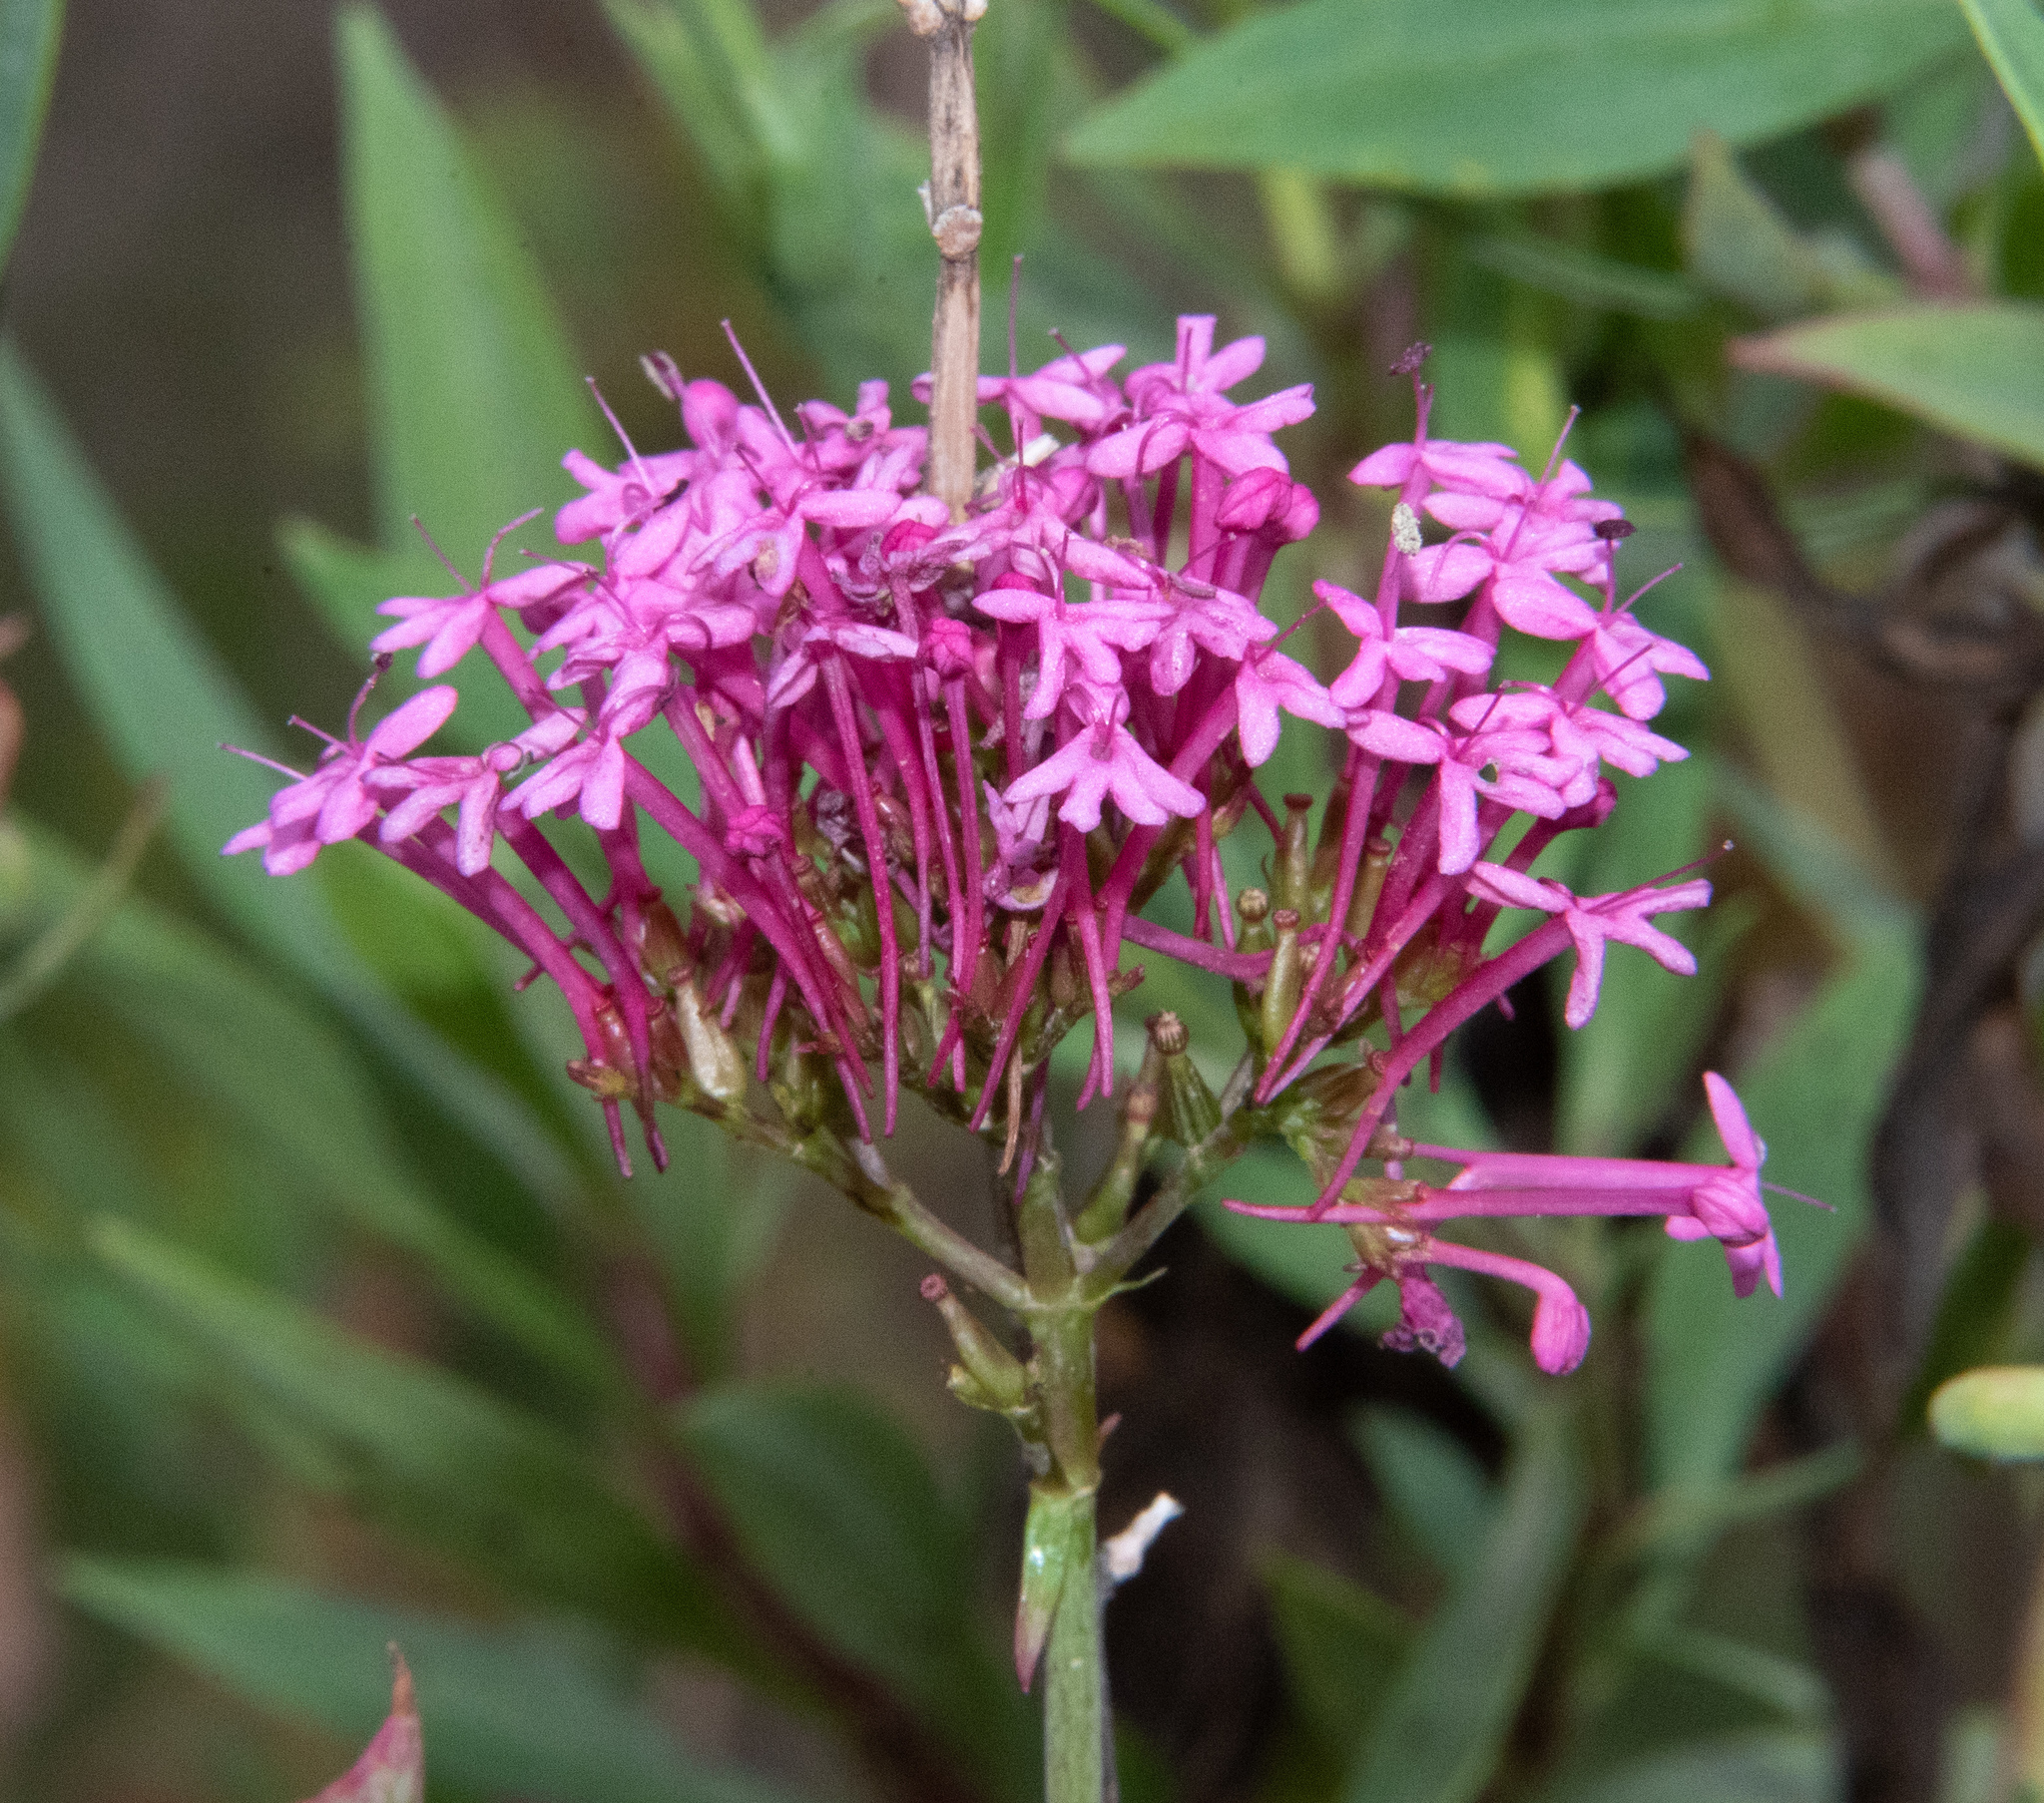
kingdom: Plantae
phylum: Tracheophyta
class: Magnoliopsida
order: Dipsacales
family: Caprifoliaceae
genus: Centranthus
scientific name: Centranthus ruber
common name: Red valerian
